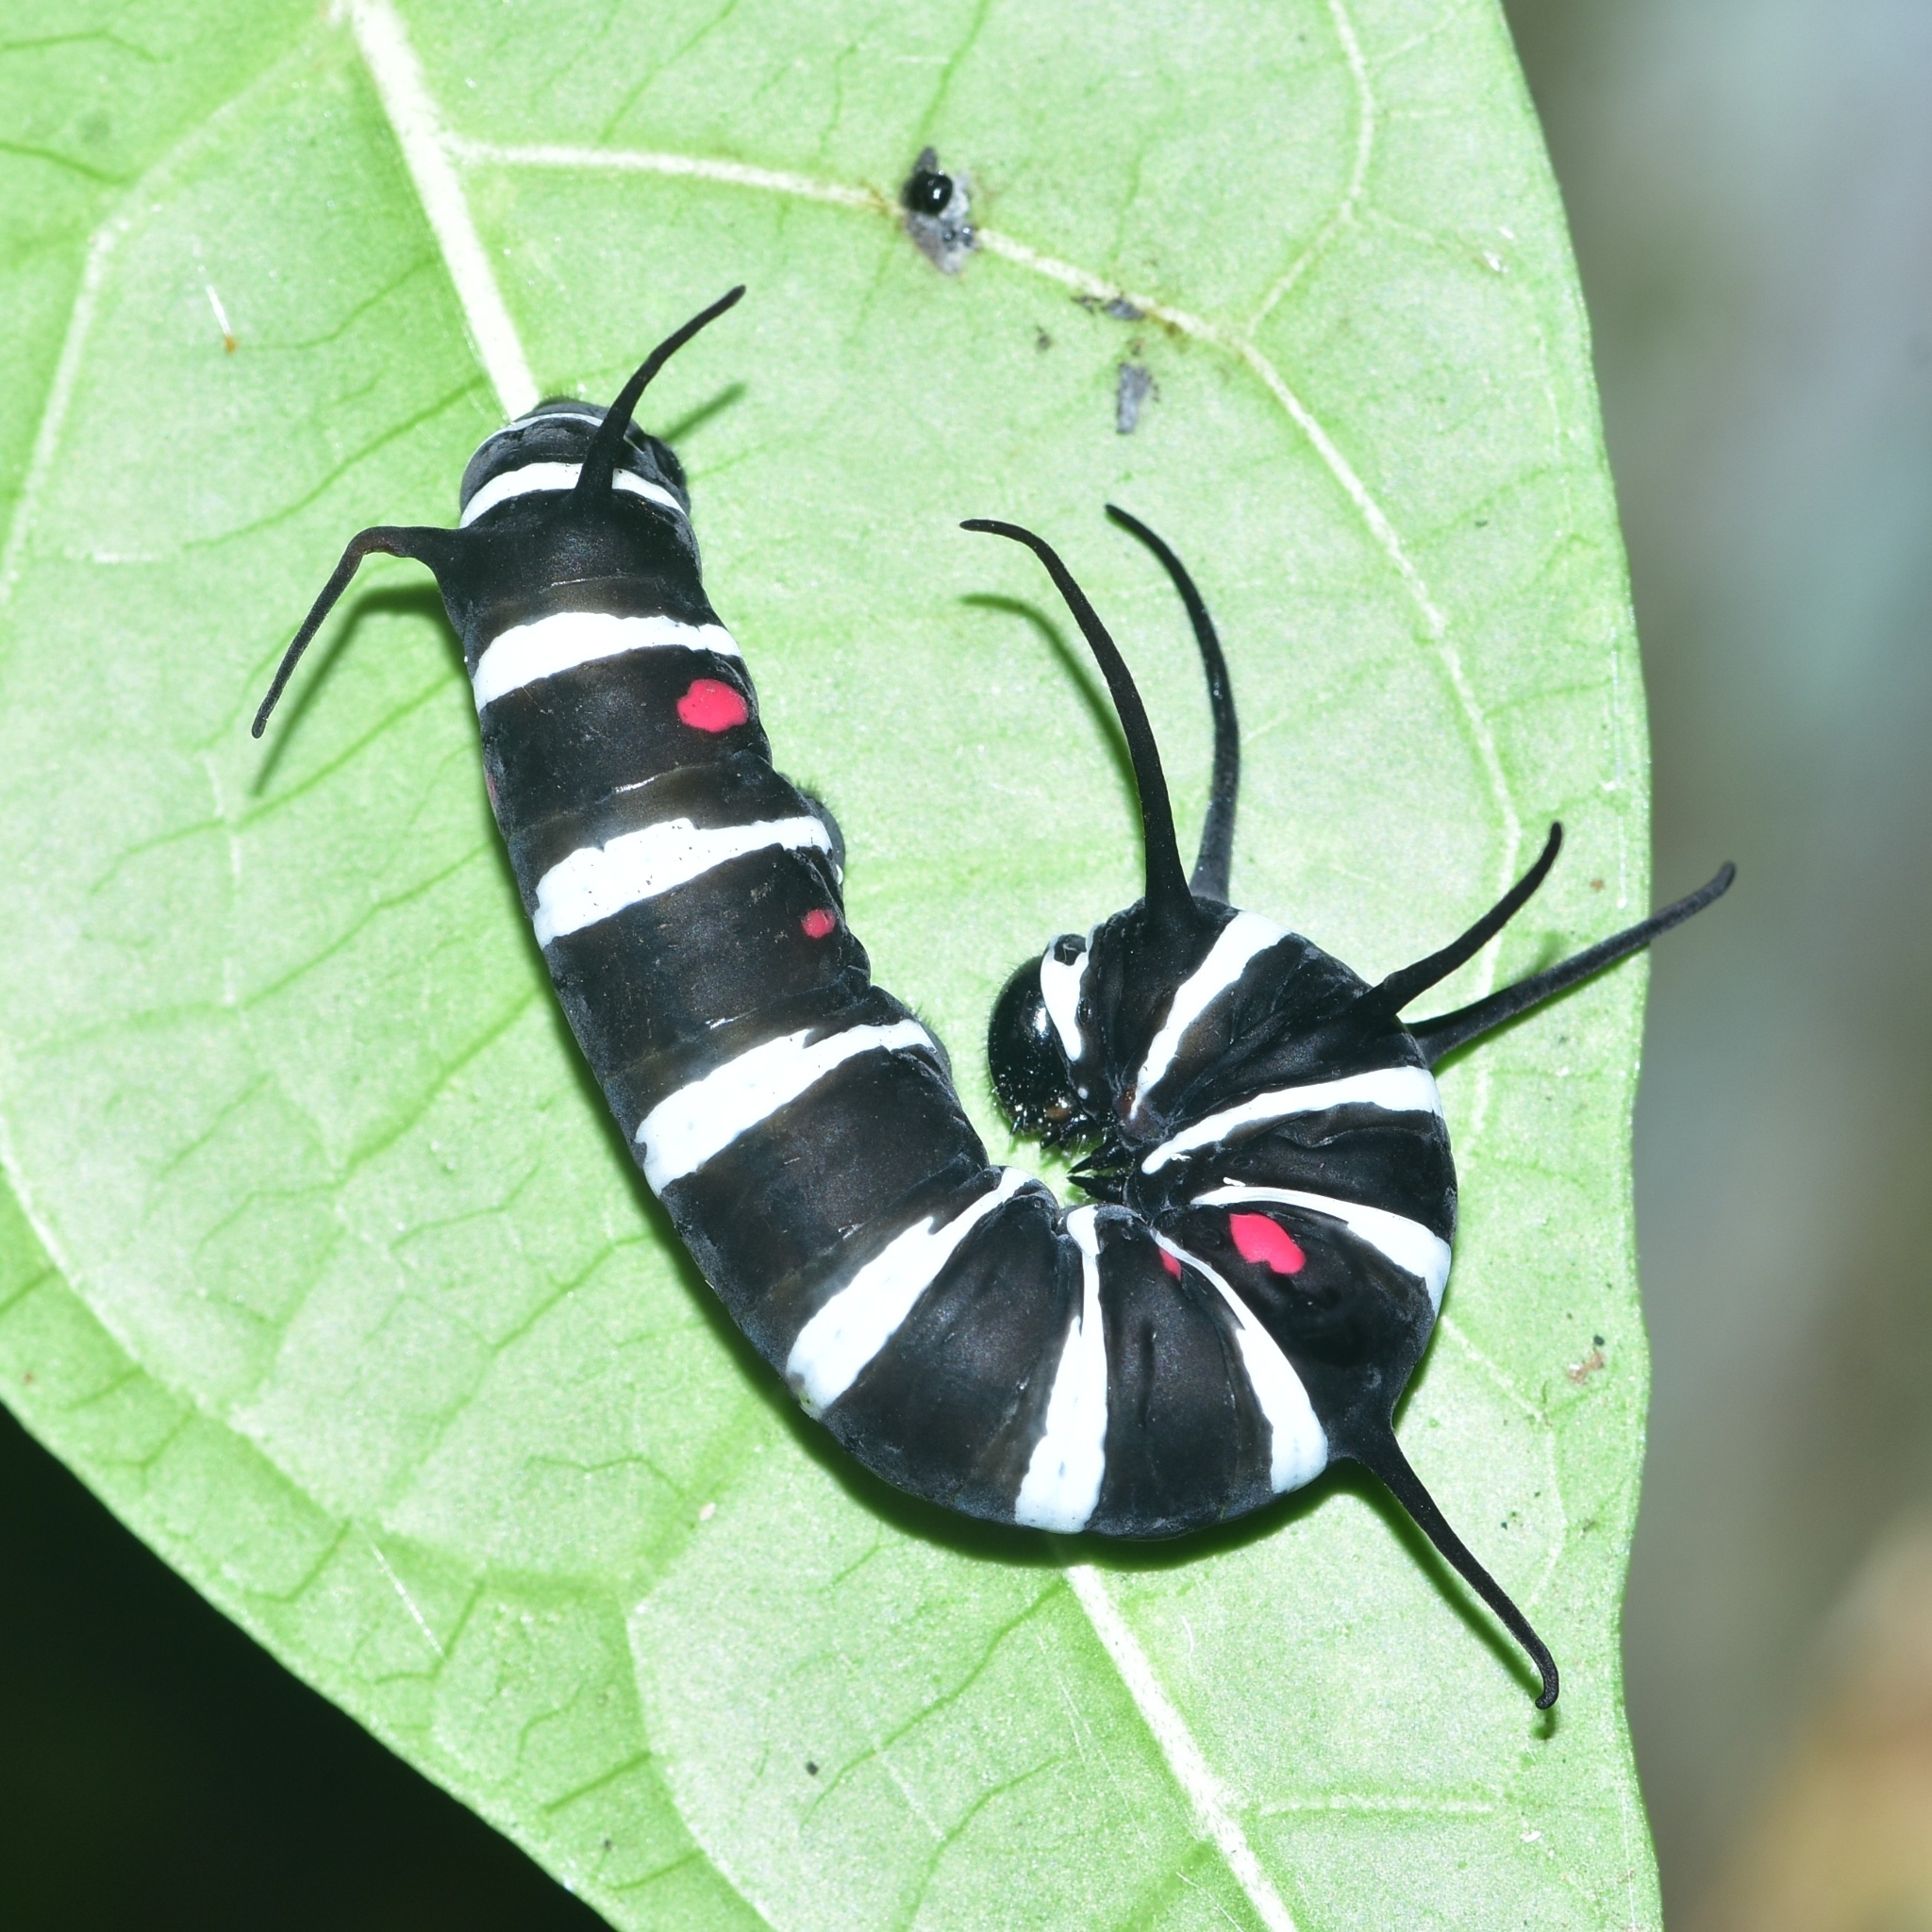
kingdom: Animalia
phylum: Arthropoda
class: Insecta
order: Lepidoptera
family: Nymphalidae
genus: Idea
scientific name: Idea malabarica
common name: Malabar tree-nymph
